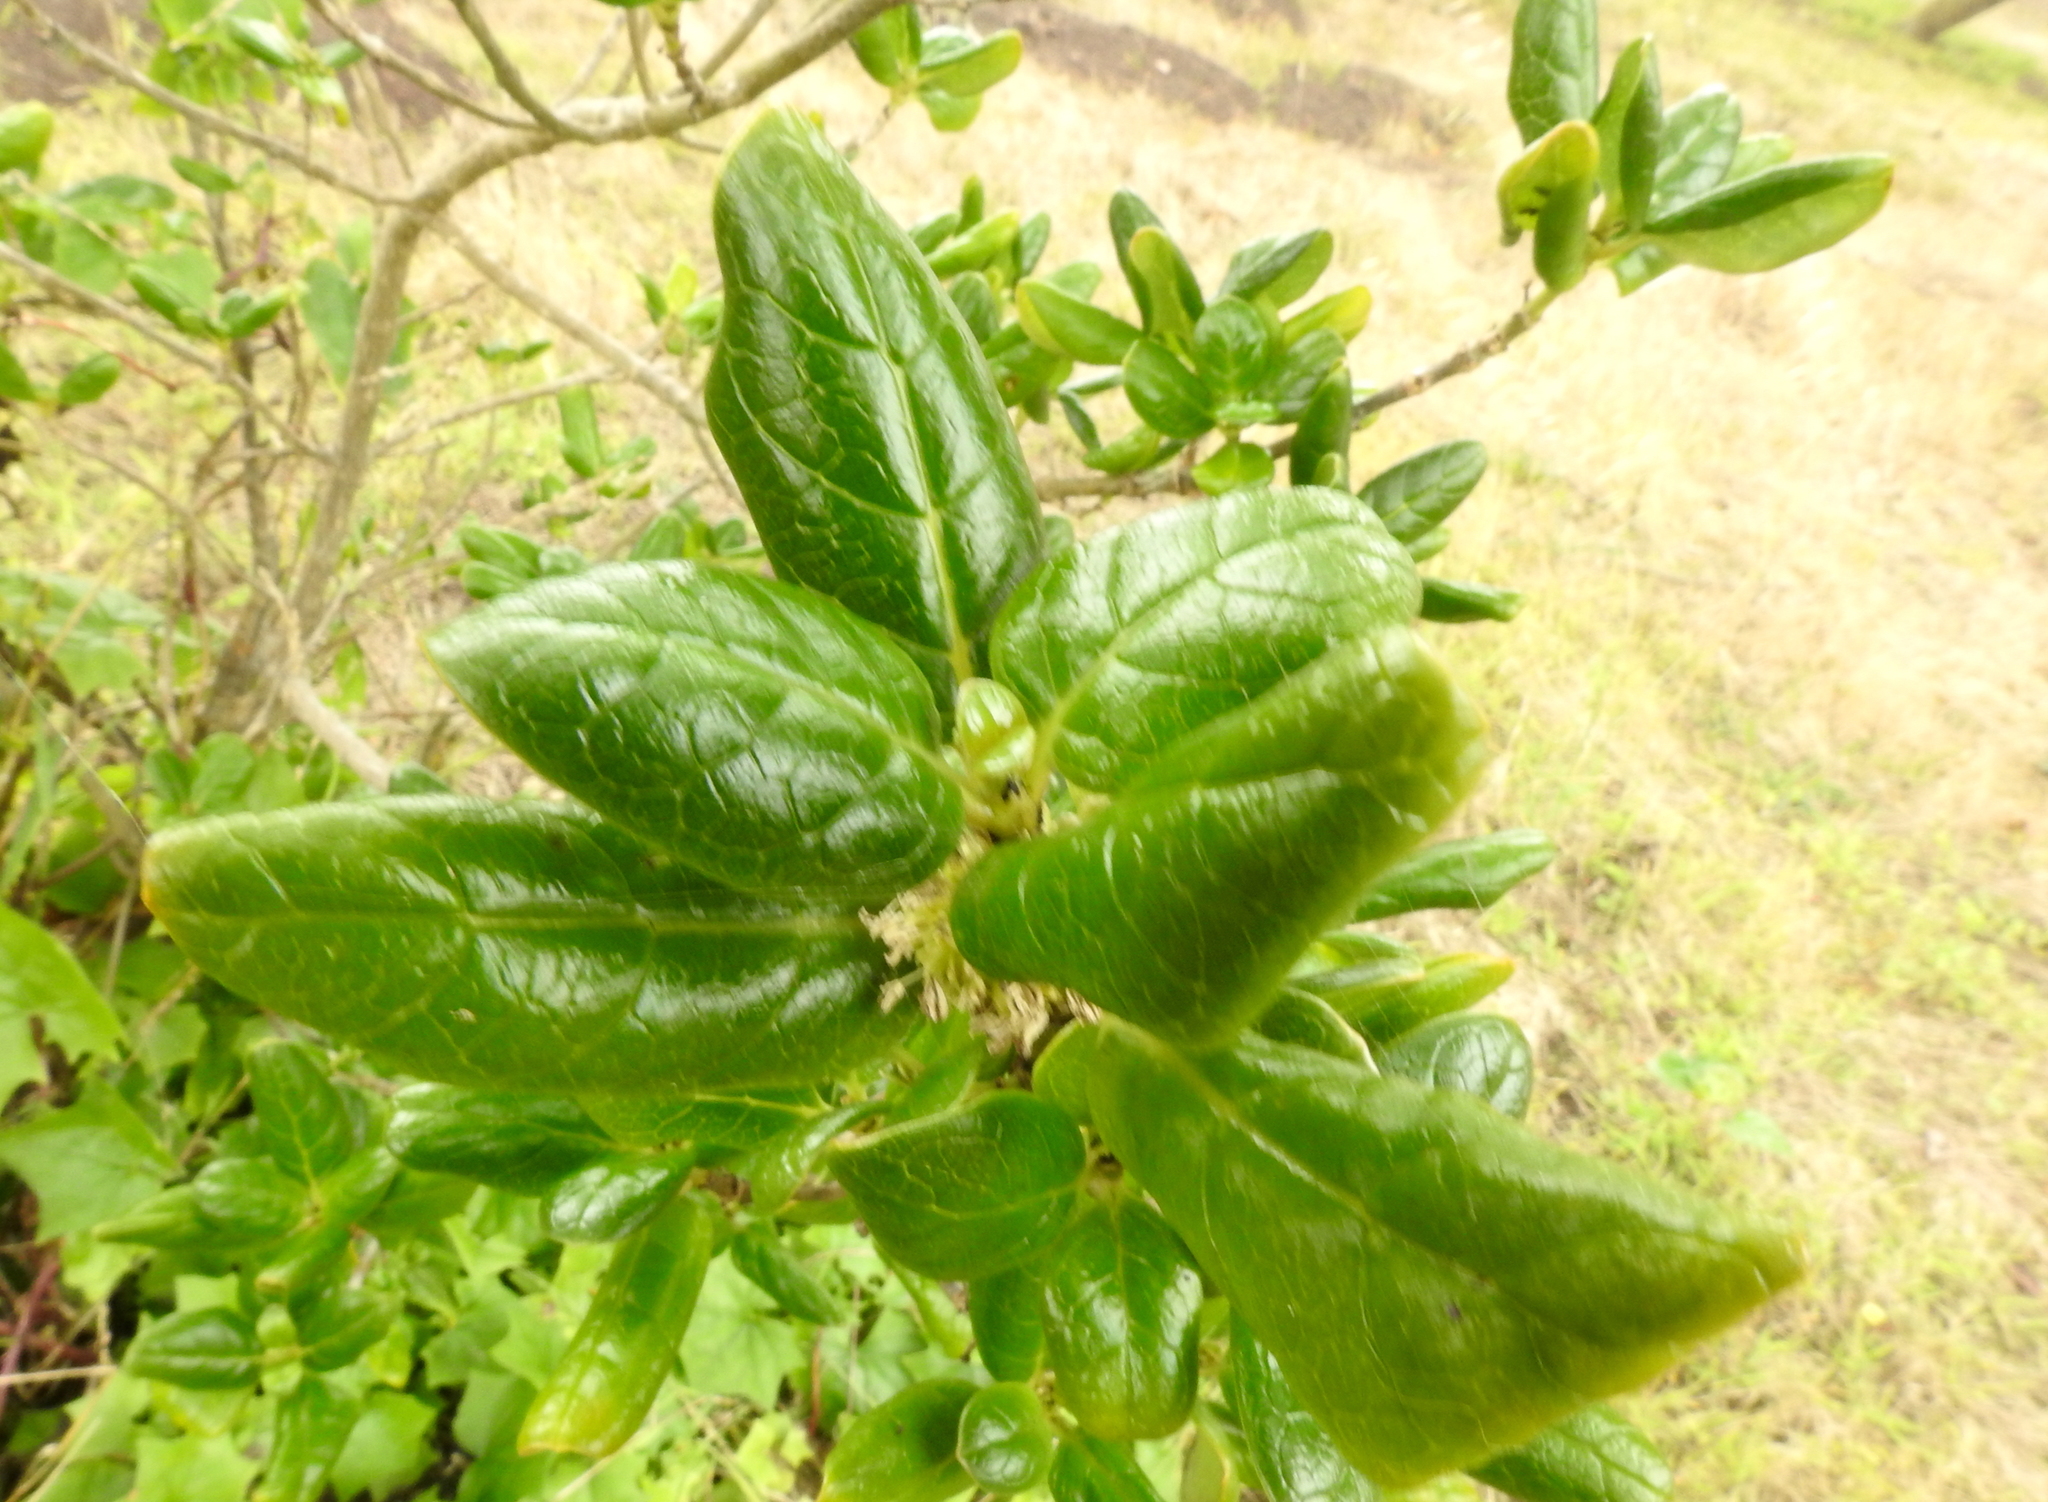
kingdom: Plantae
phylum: Tracheophyta
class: Magnoliopsida
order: Gentianales
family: Rubiaceae
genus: Coprosma
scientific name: Coprosma repens
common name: Tree bedstraw
